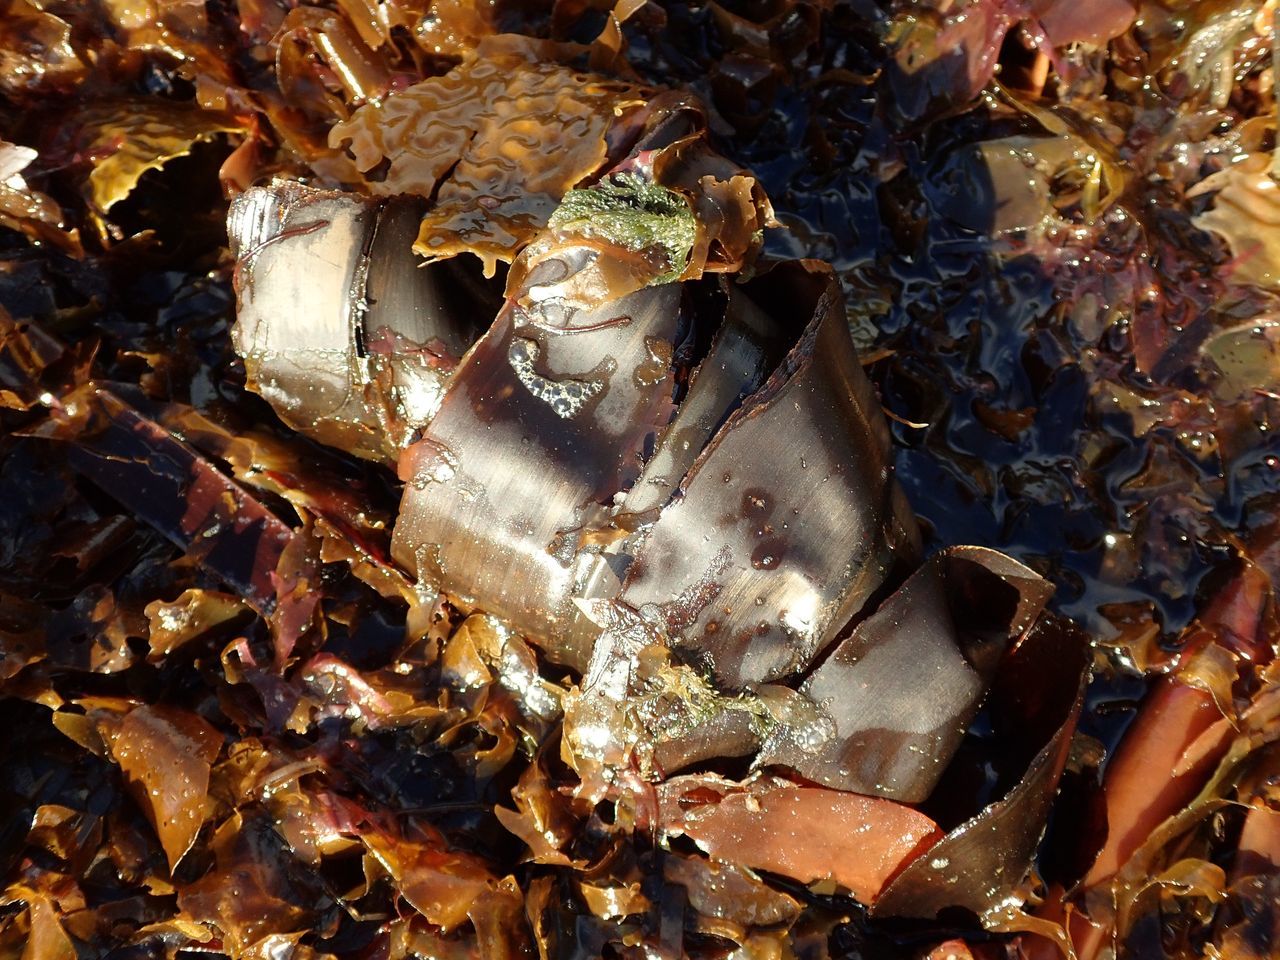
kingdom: Animalia
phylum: Chordata
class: Elasmobranchii
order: Heterodontiformes
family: Heterodontidae
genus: Heterodontus
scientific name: Heterodontus portusjacksoni
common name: Port jackson shark
